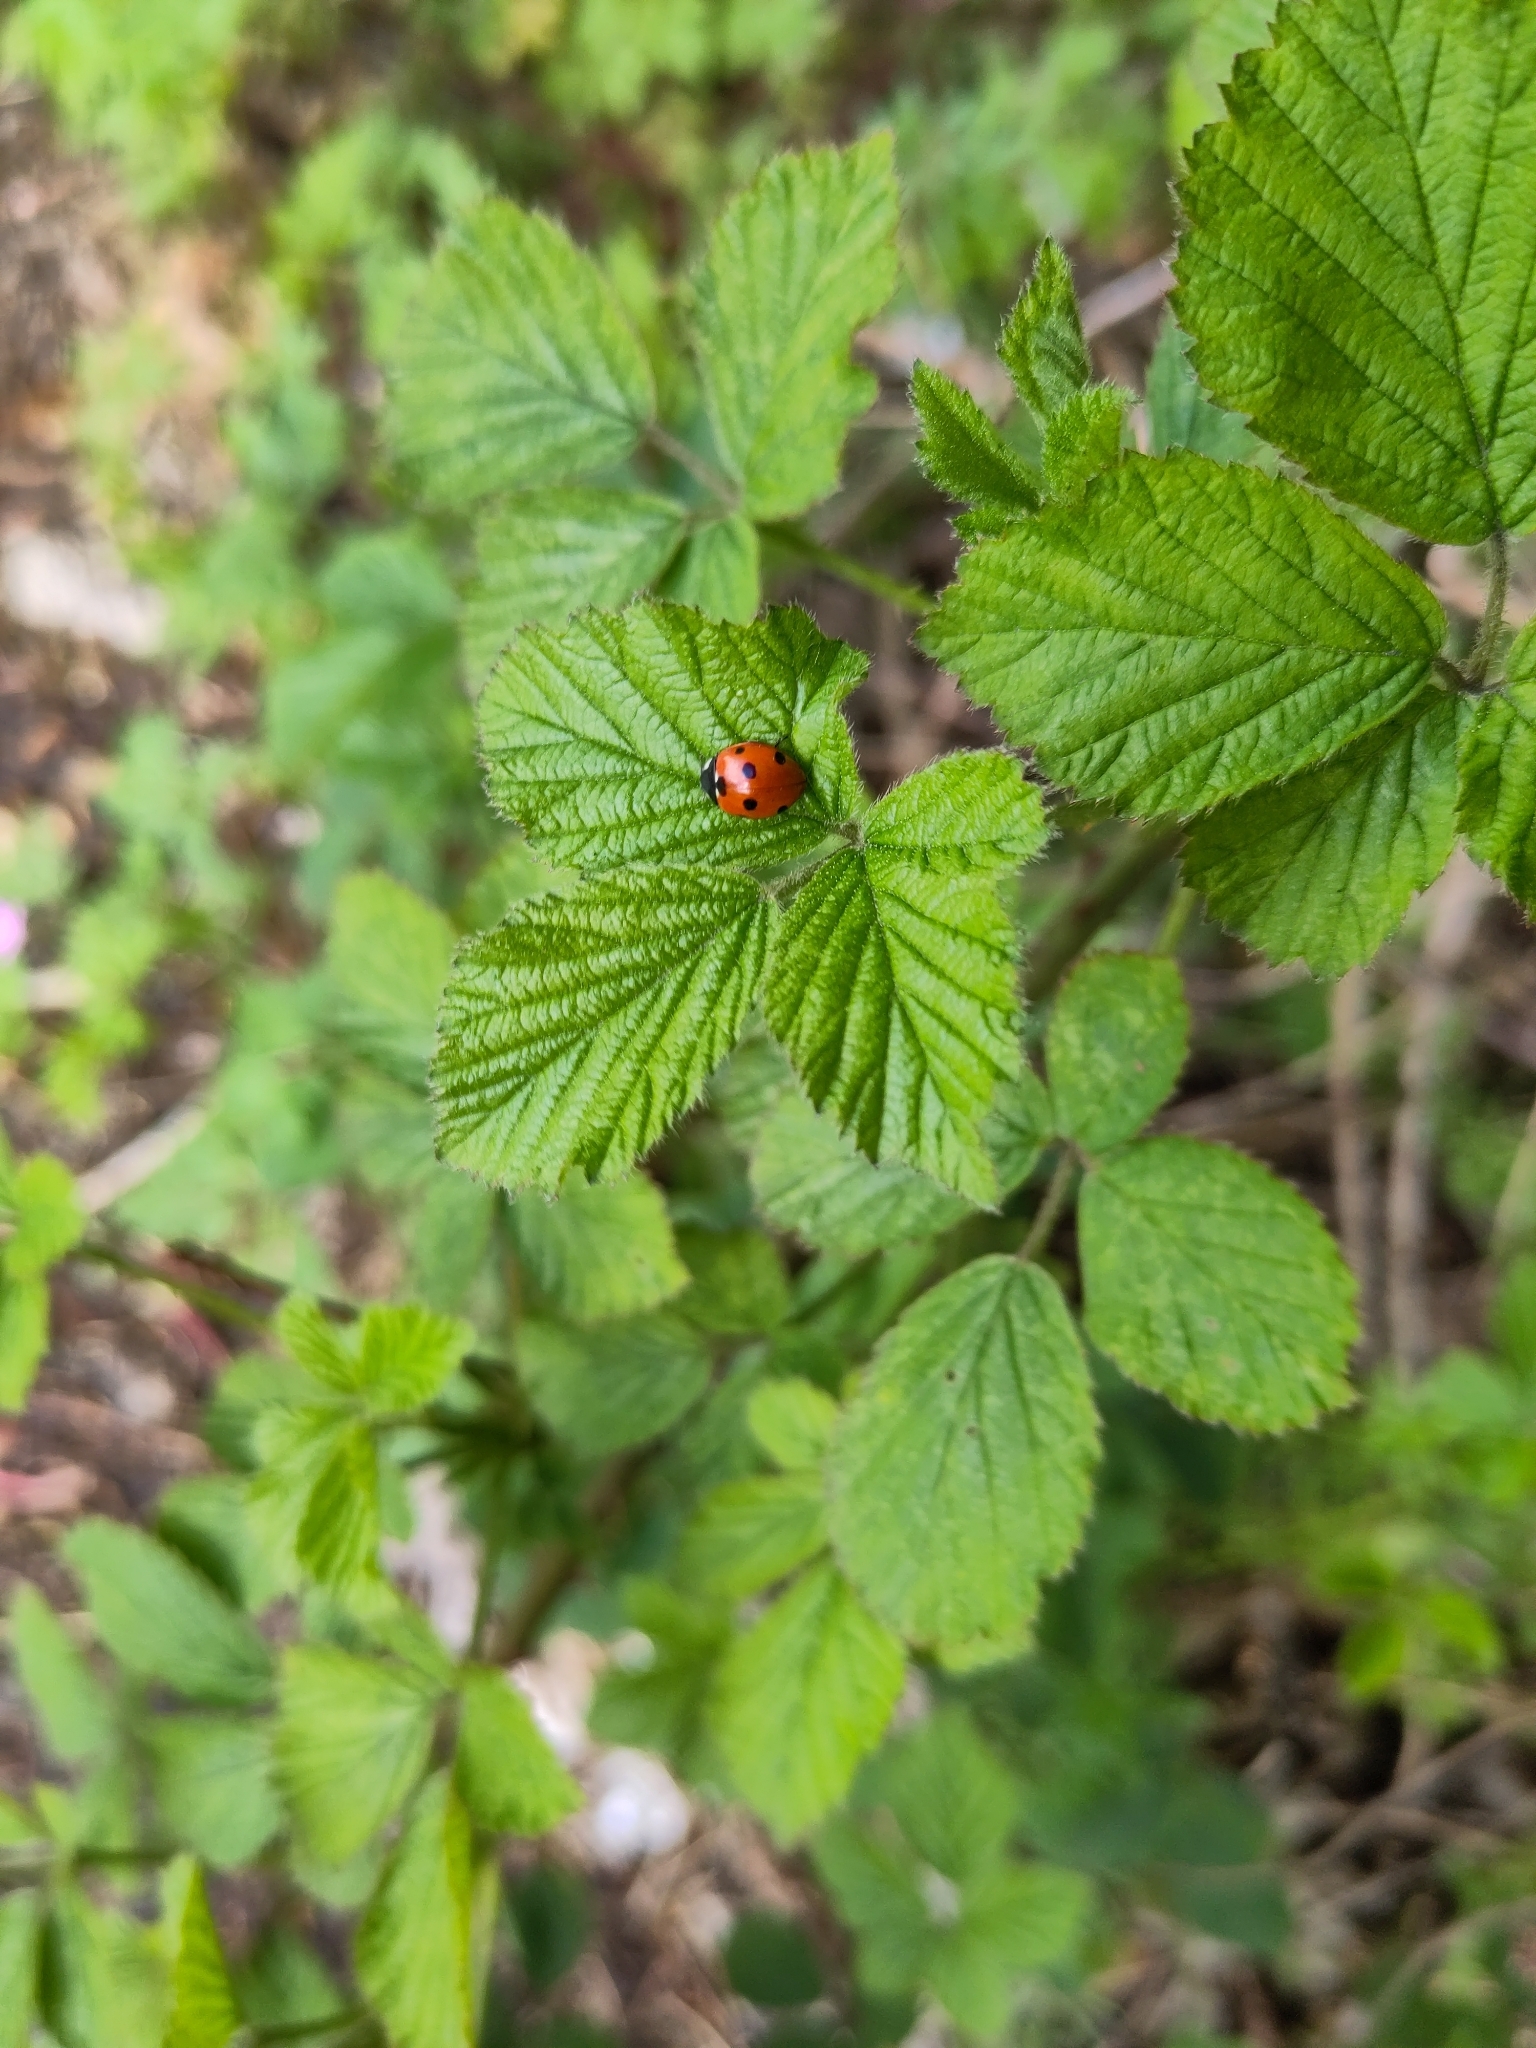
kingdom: Animalia
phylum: Arthropoda
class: Insecta
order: Coleoptera
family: Coccinellidae
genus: Coccinella
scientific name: Coccinella septempunctata
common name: Sevenspotted lady beetle
